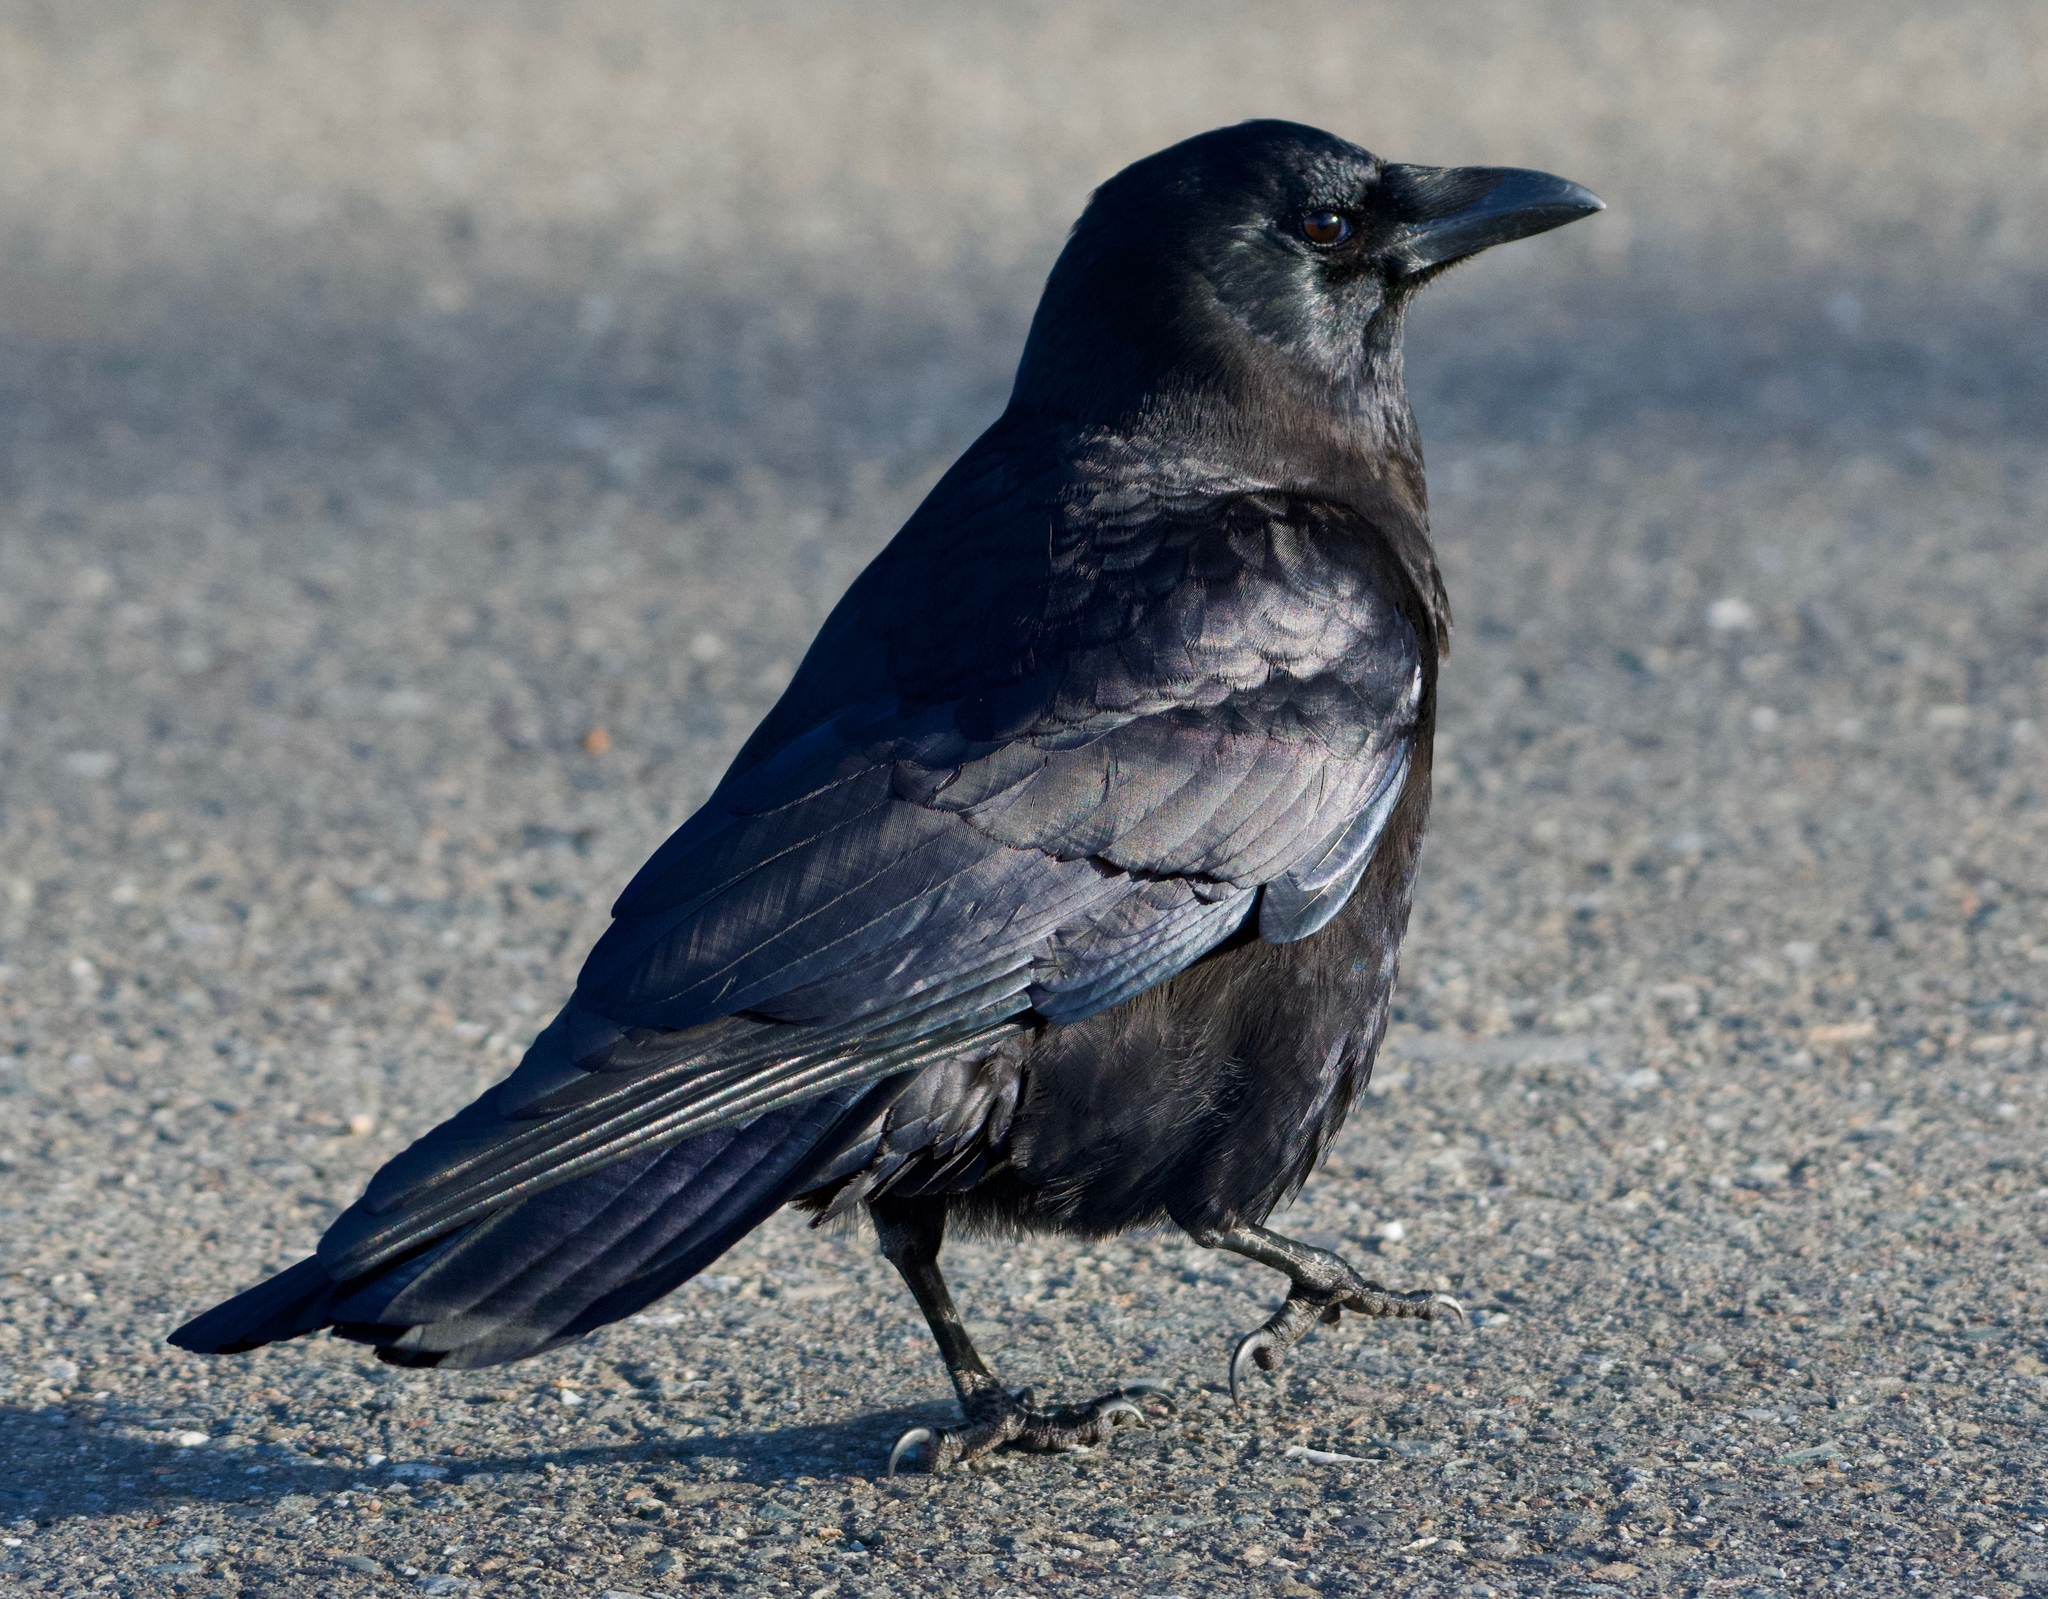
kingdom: Animalia
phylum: Chordata
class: Aves
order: Passeriformes
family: Corvidae
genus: Corvus
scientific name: Corvus brachyrhynchos
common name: American crow
